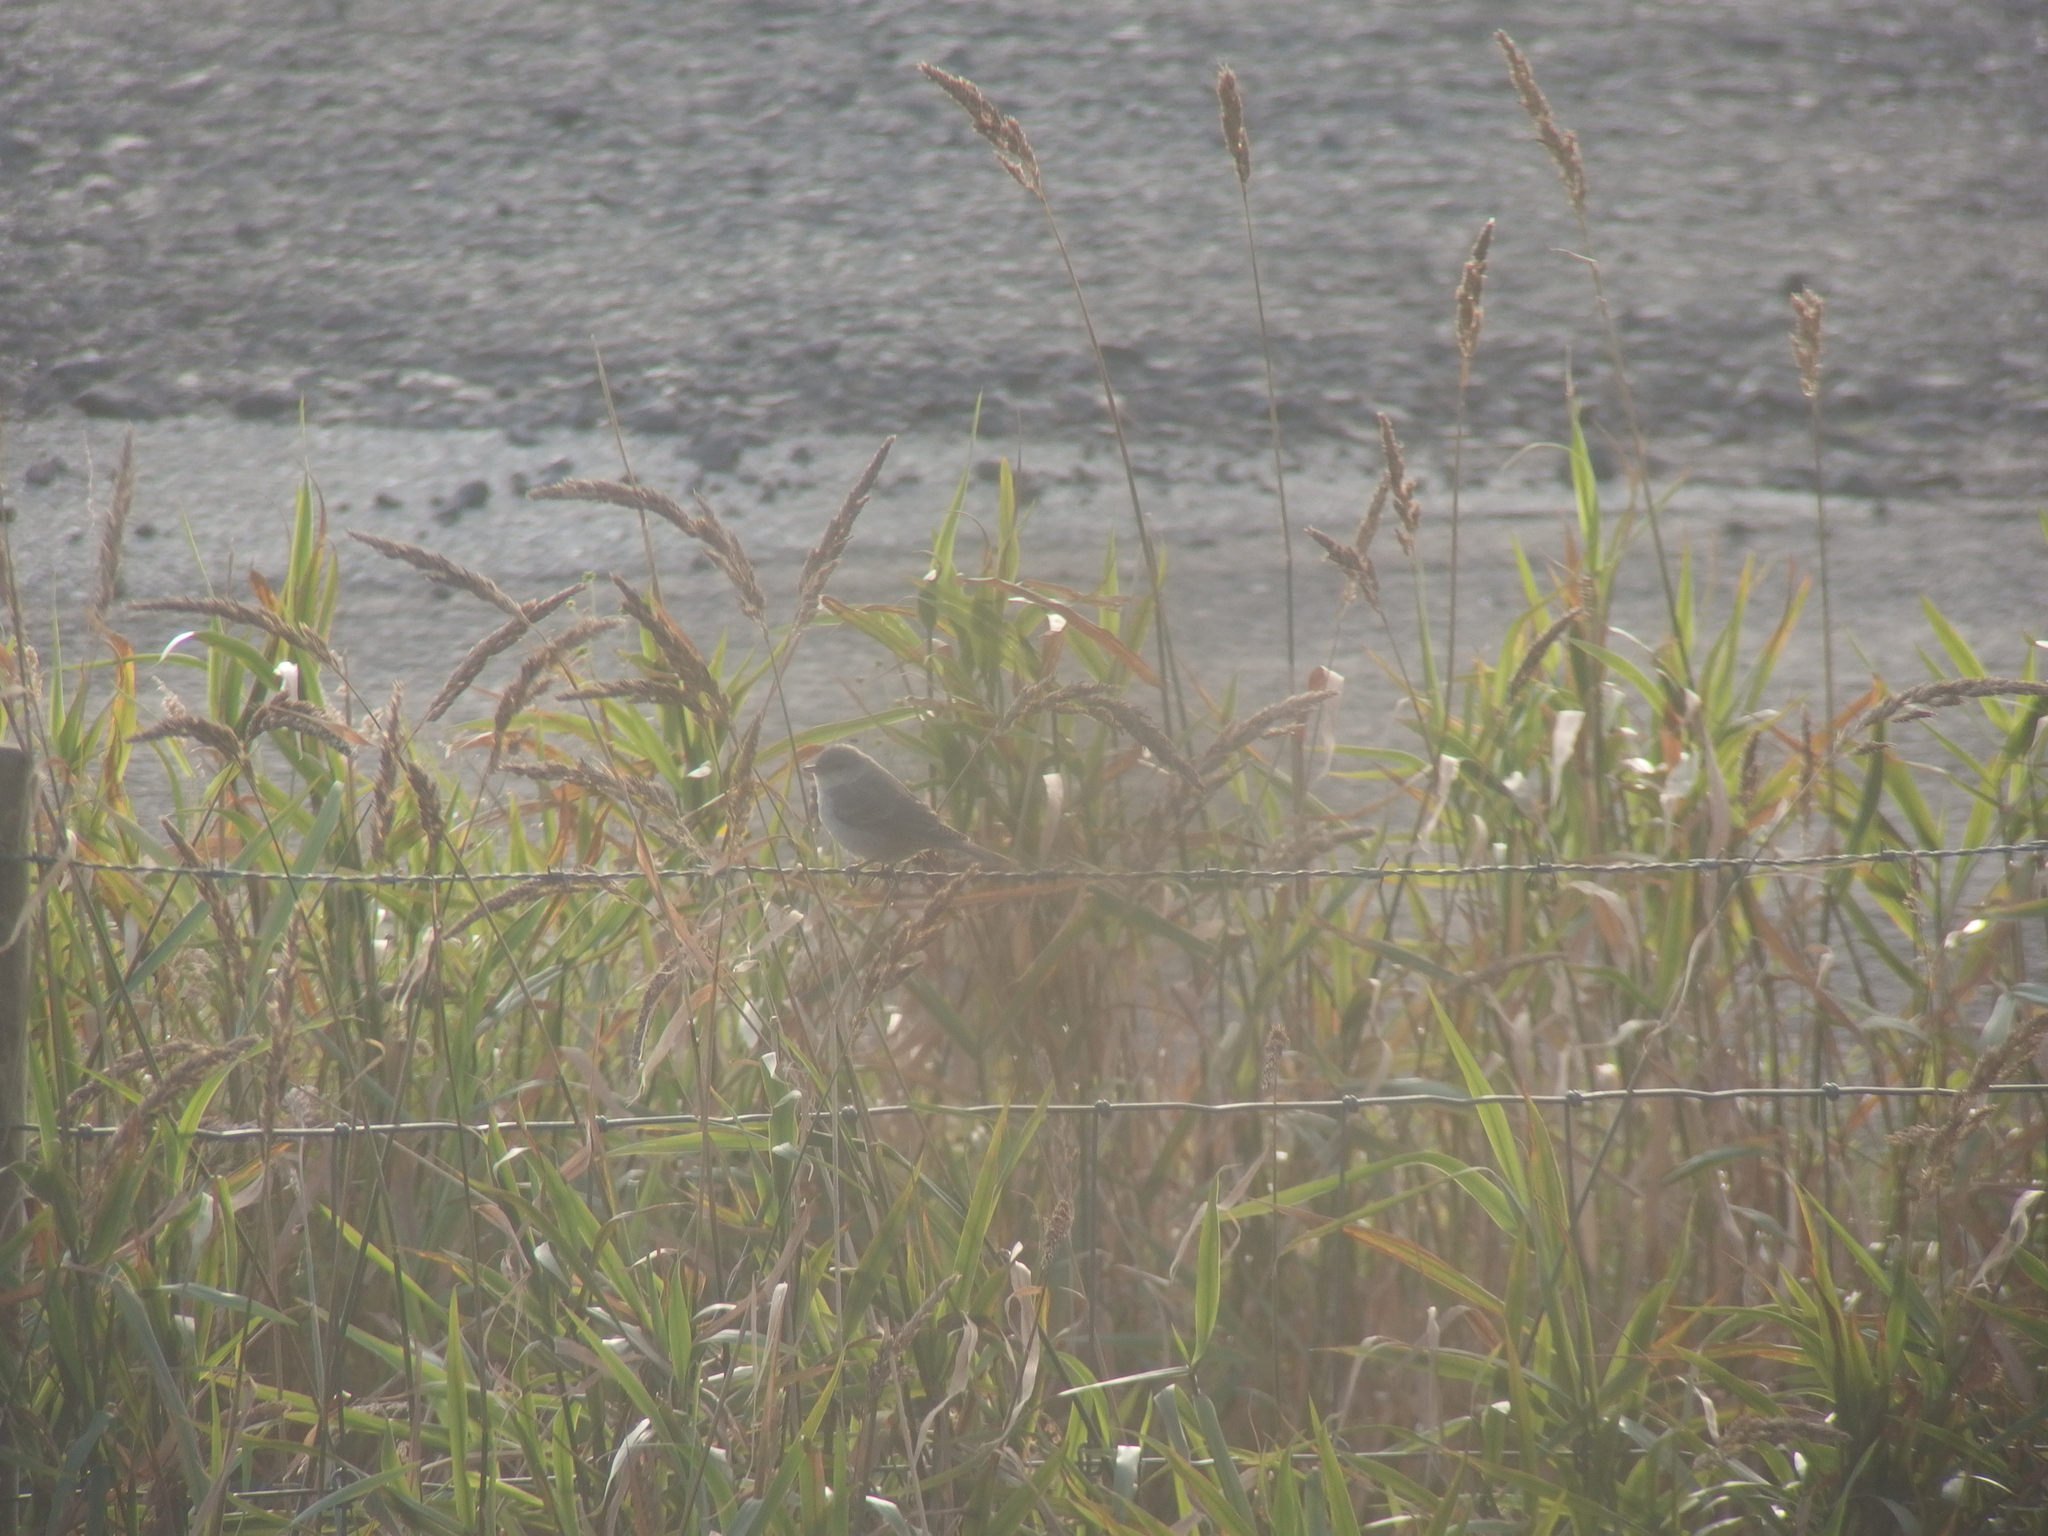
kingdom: Animalia
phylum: Chordata
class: Aves
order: Passeriformes
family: Sylviidae
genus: Sylvia
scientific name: Sylvia nisoria
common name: Barred warbler
